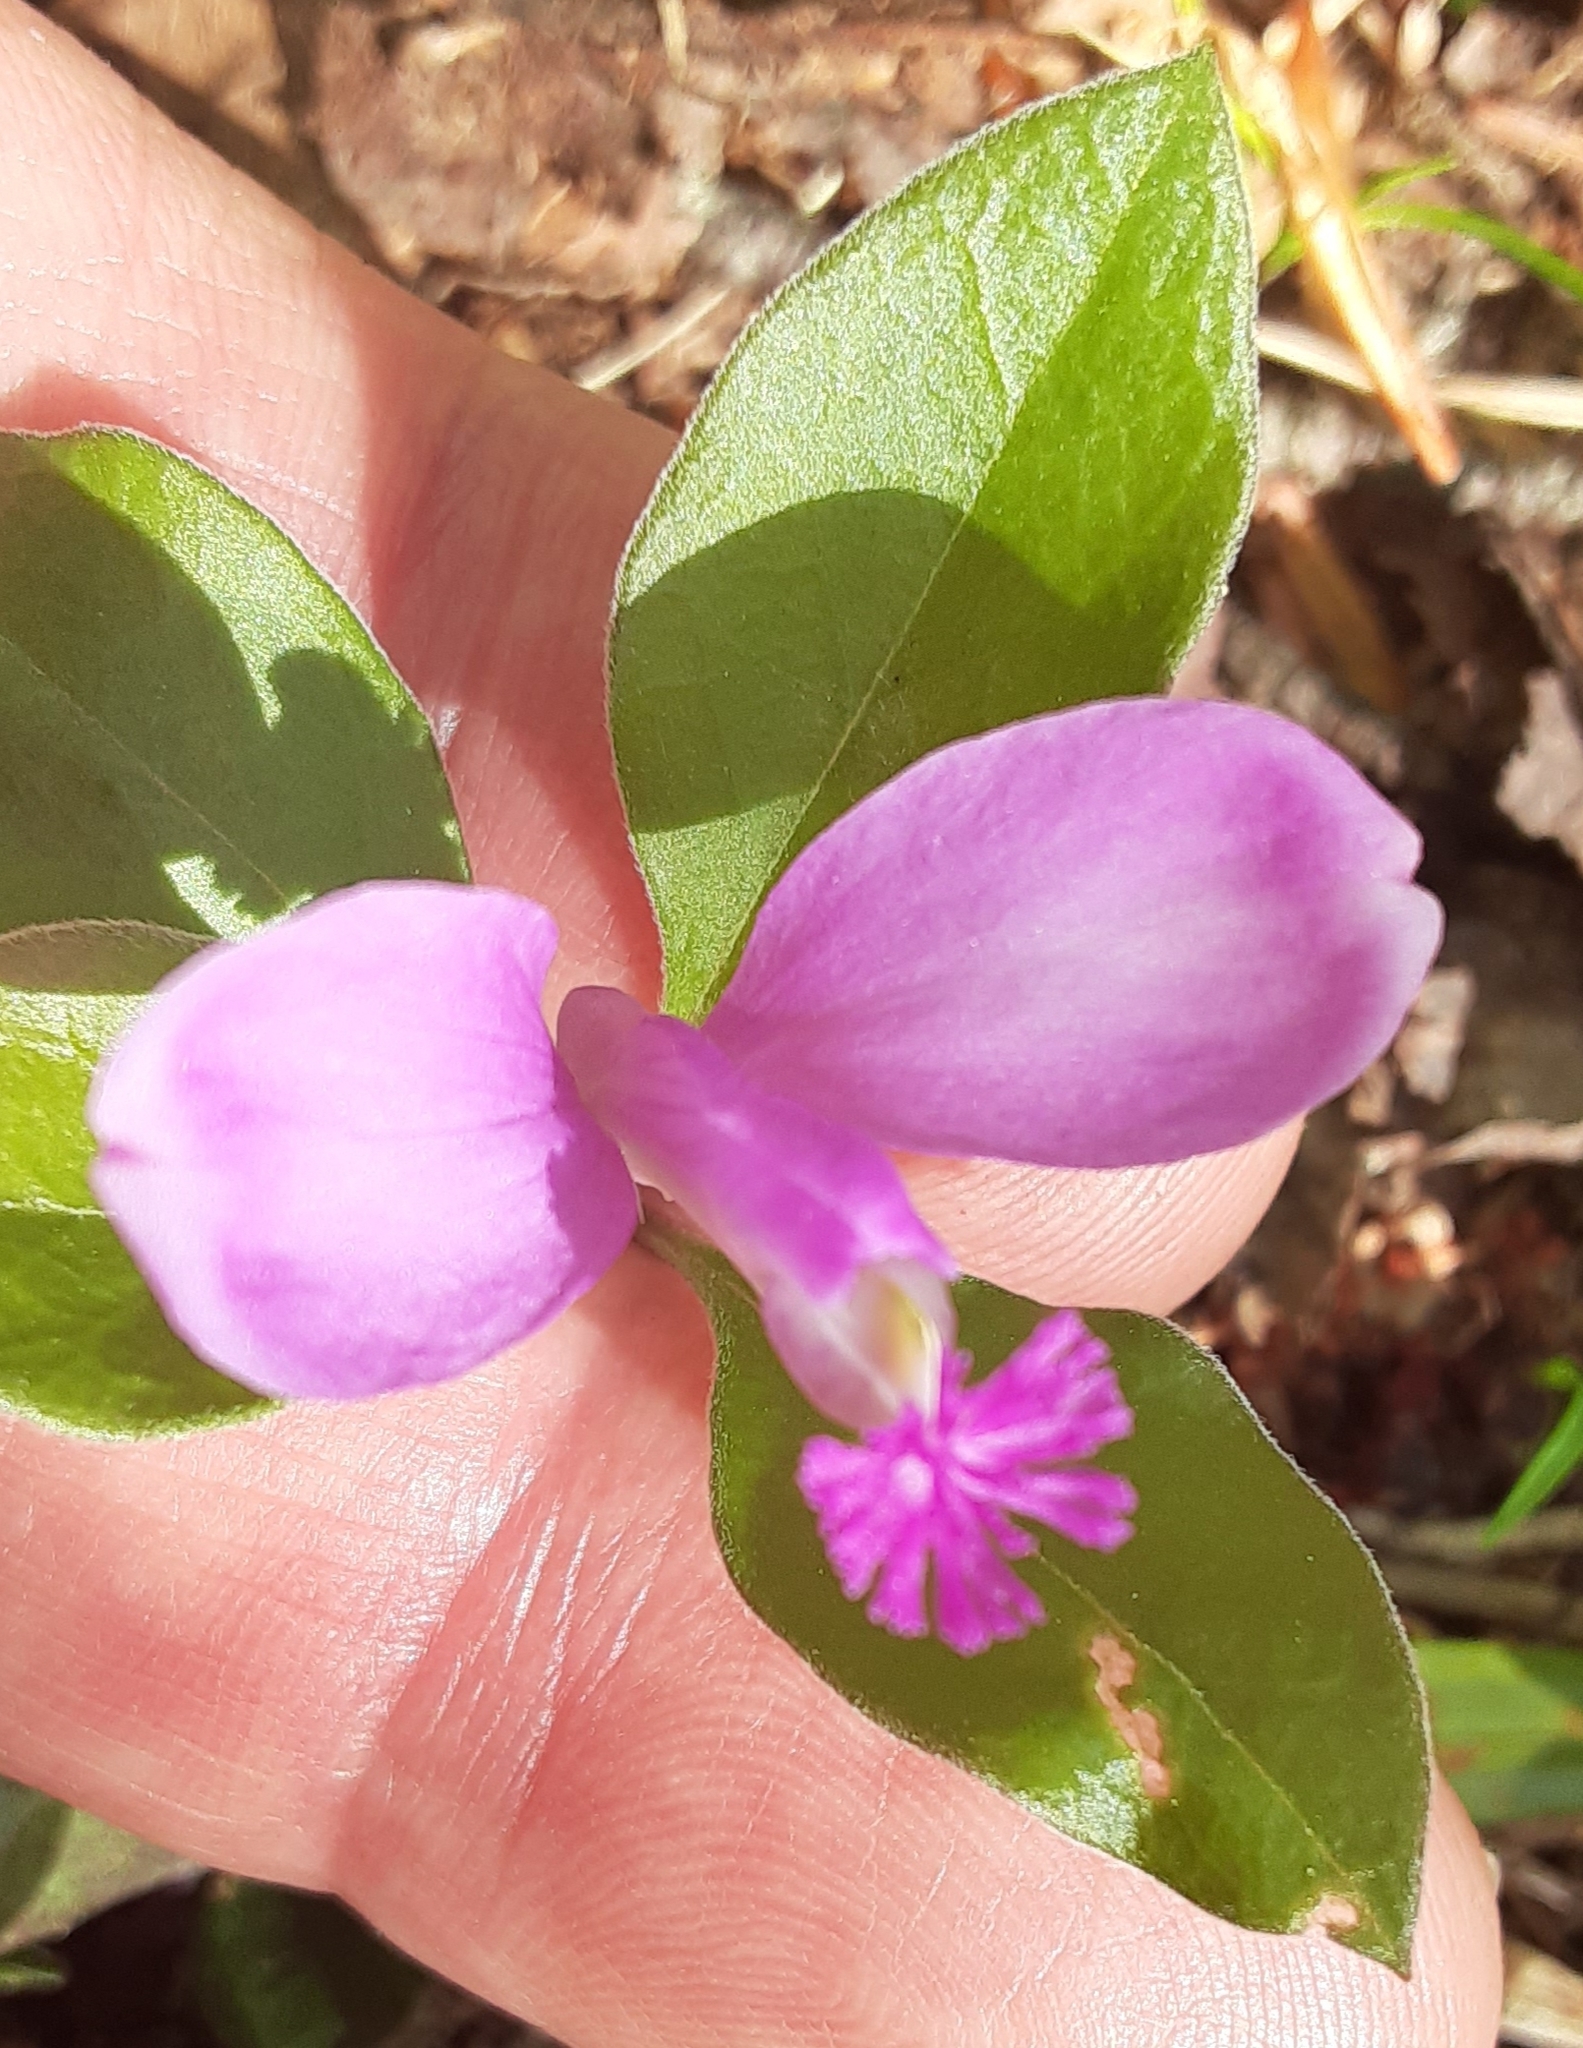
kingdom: Plantae
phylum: Tracheophyta
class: Magnoliopsida
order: Fabales
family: Polygalaceae
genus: Polygaloides
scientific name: Polygaloides paucifolia
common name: Bird-on-the-wing
